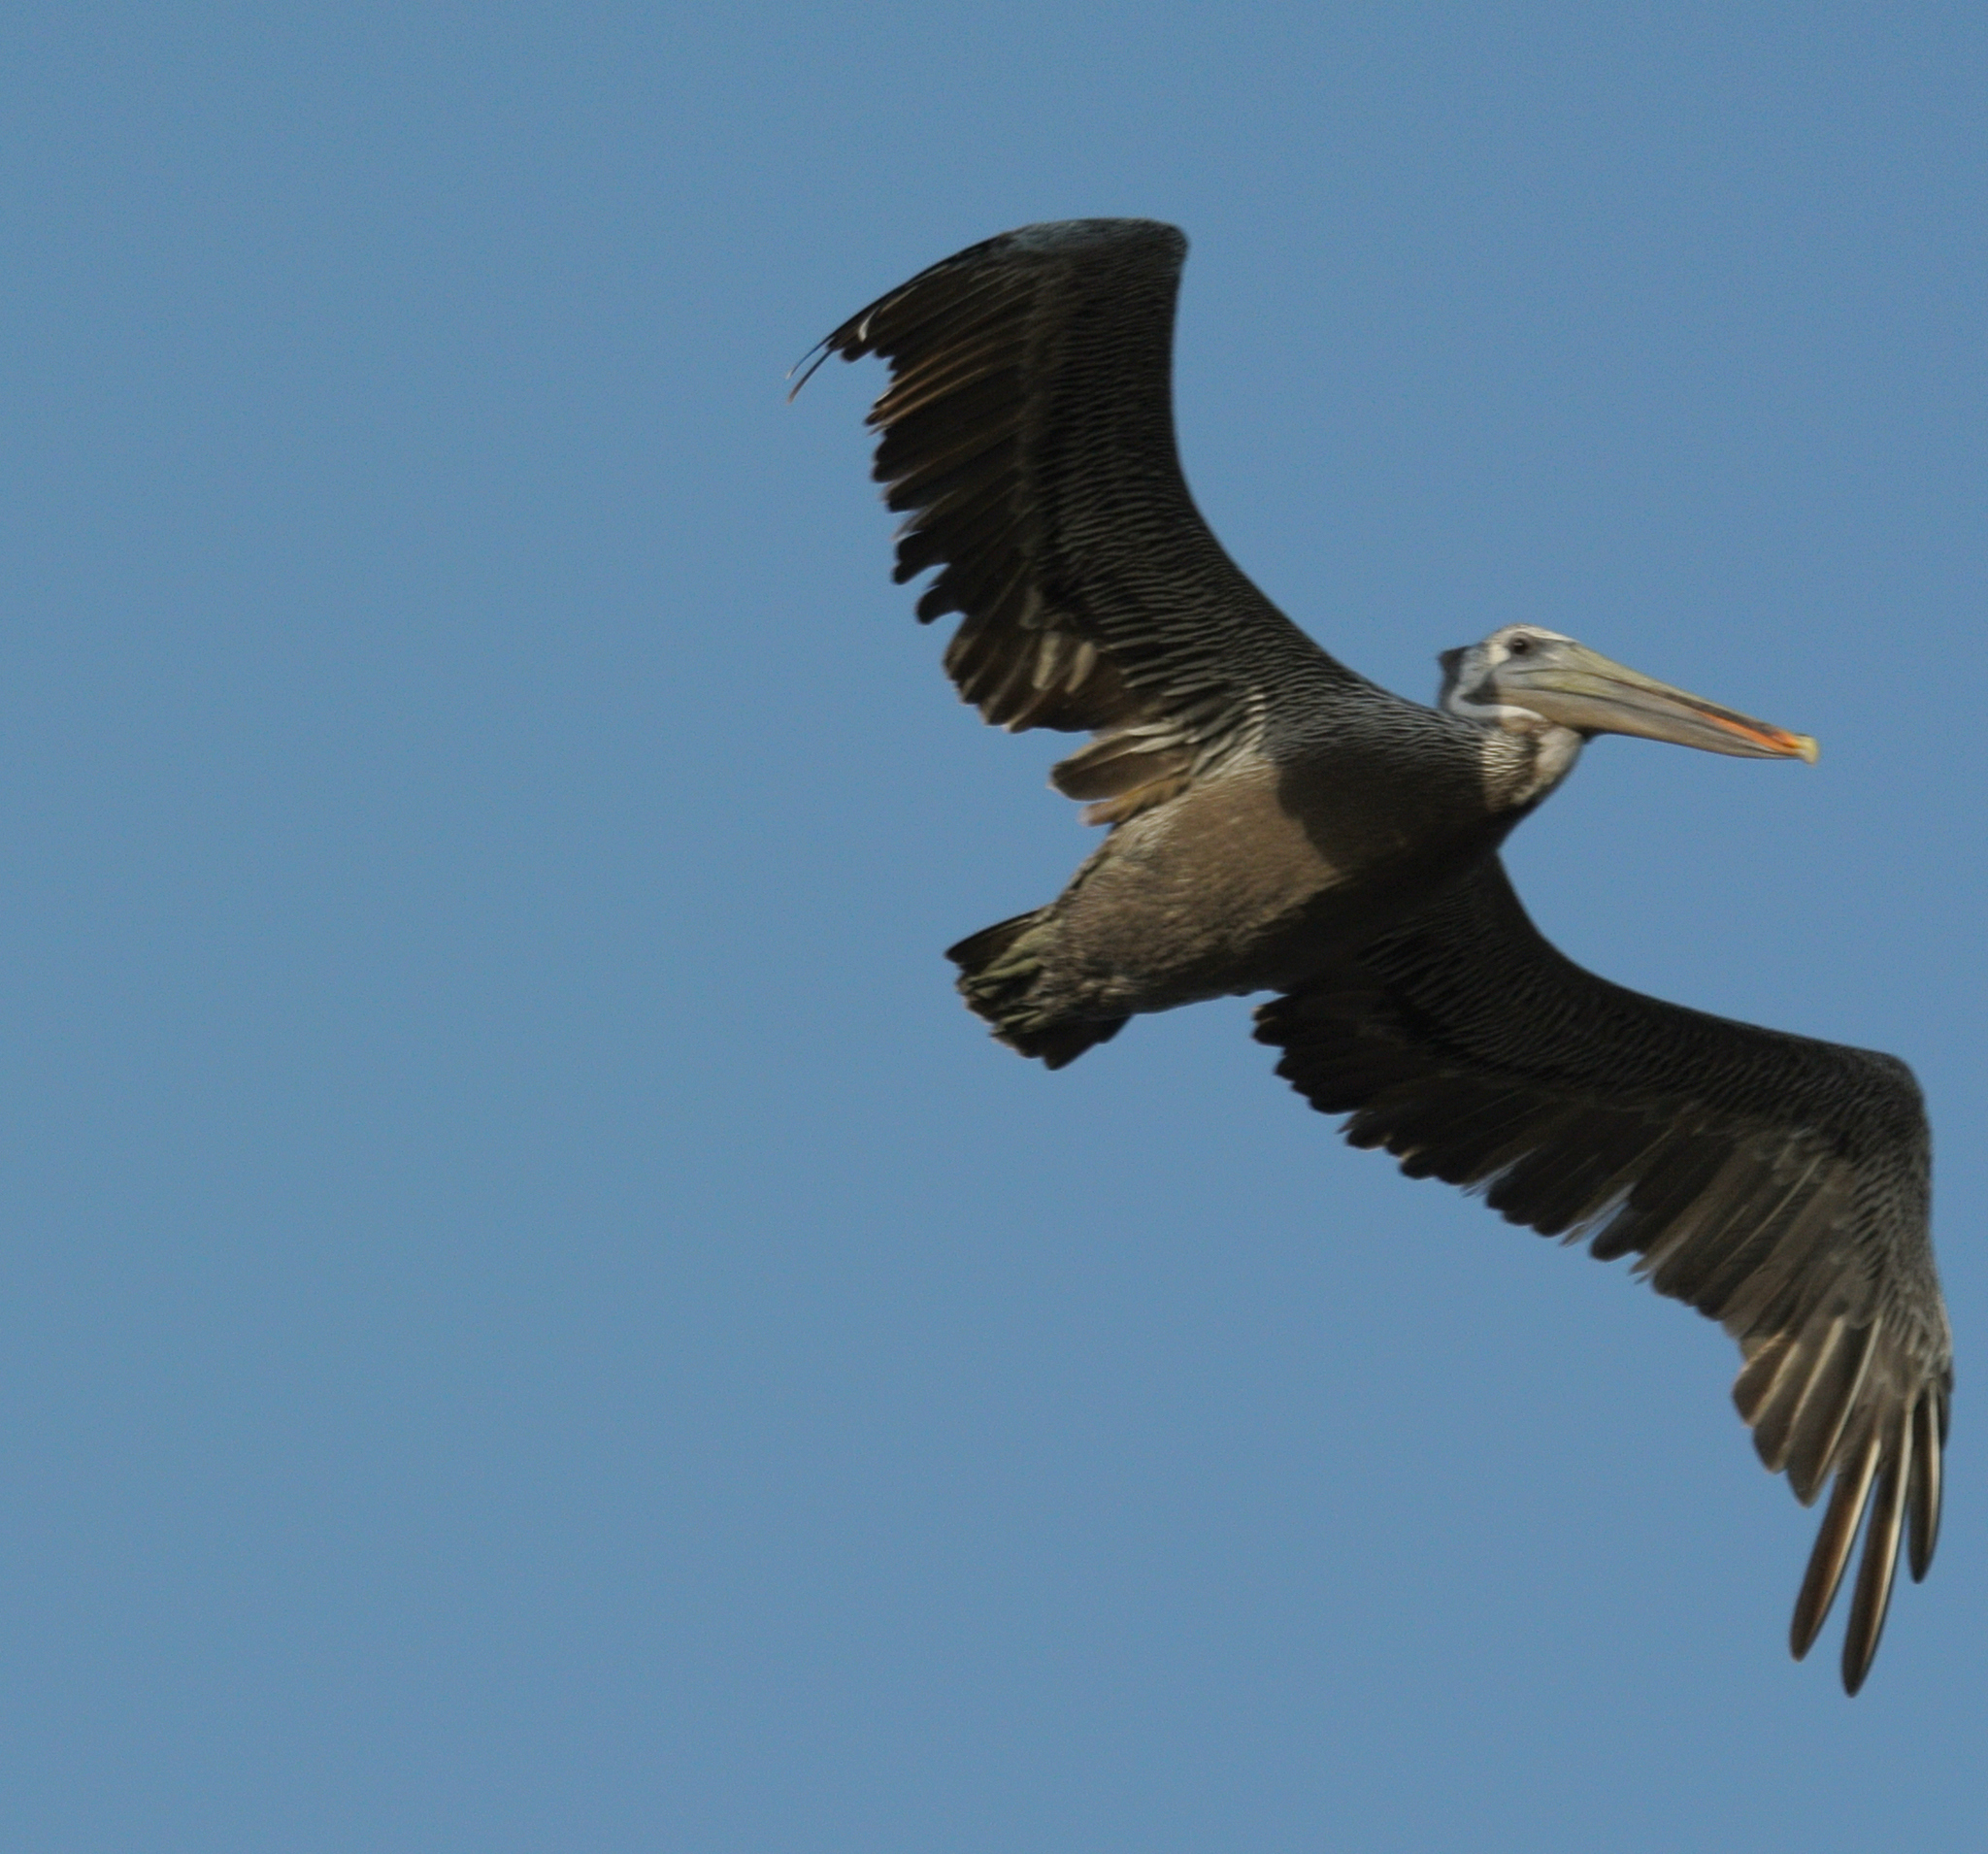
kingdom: Animalia
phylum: Chordata
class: Aves
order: Pelecaniformes
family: Pelecanidae
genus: Pelecanus
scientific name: Pelecanus occidentalis
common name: Brown pelican
